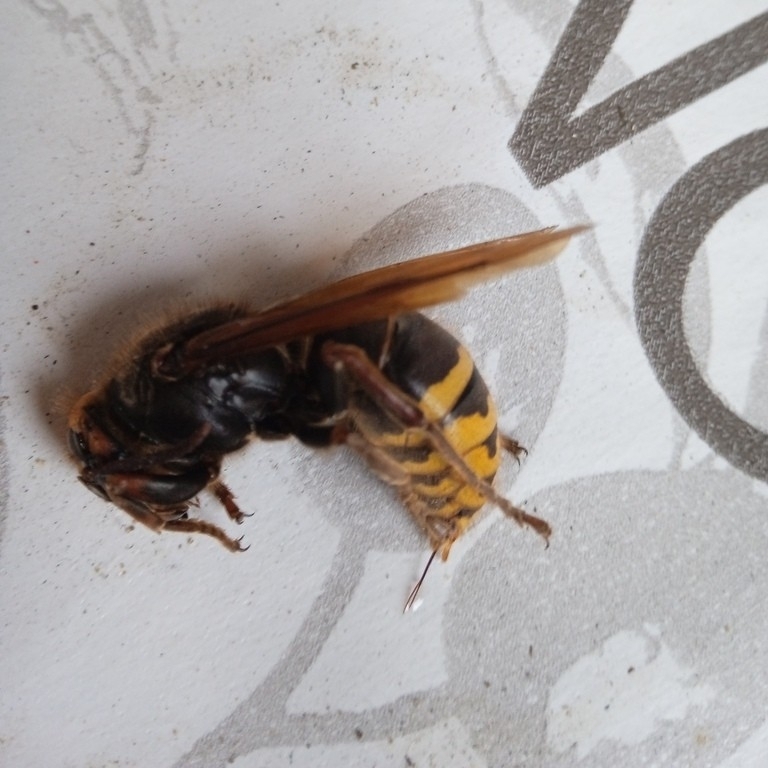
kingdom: Animalia
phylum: Arthropoda
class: Insecta
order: Hymenoptera
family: Vespidae
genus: Vespa
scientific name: Vespa crabro
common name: Hornet
